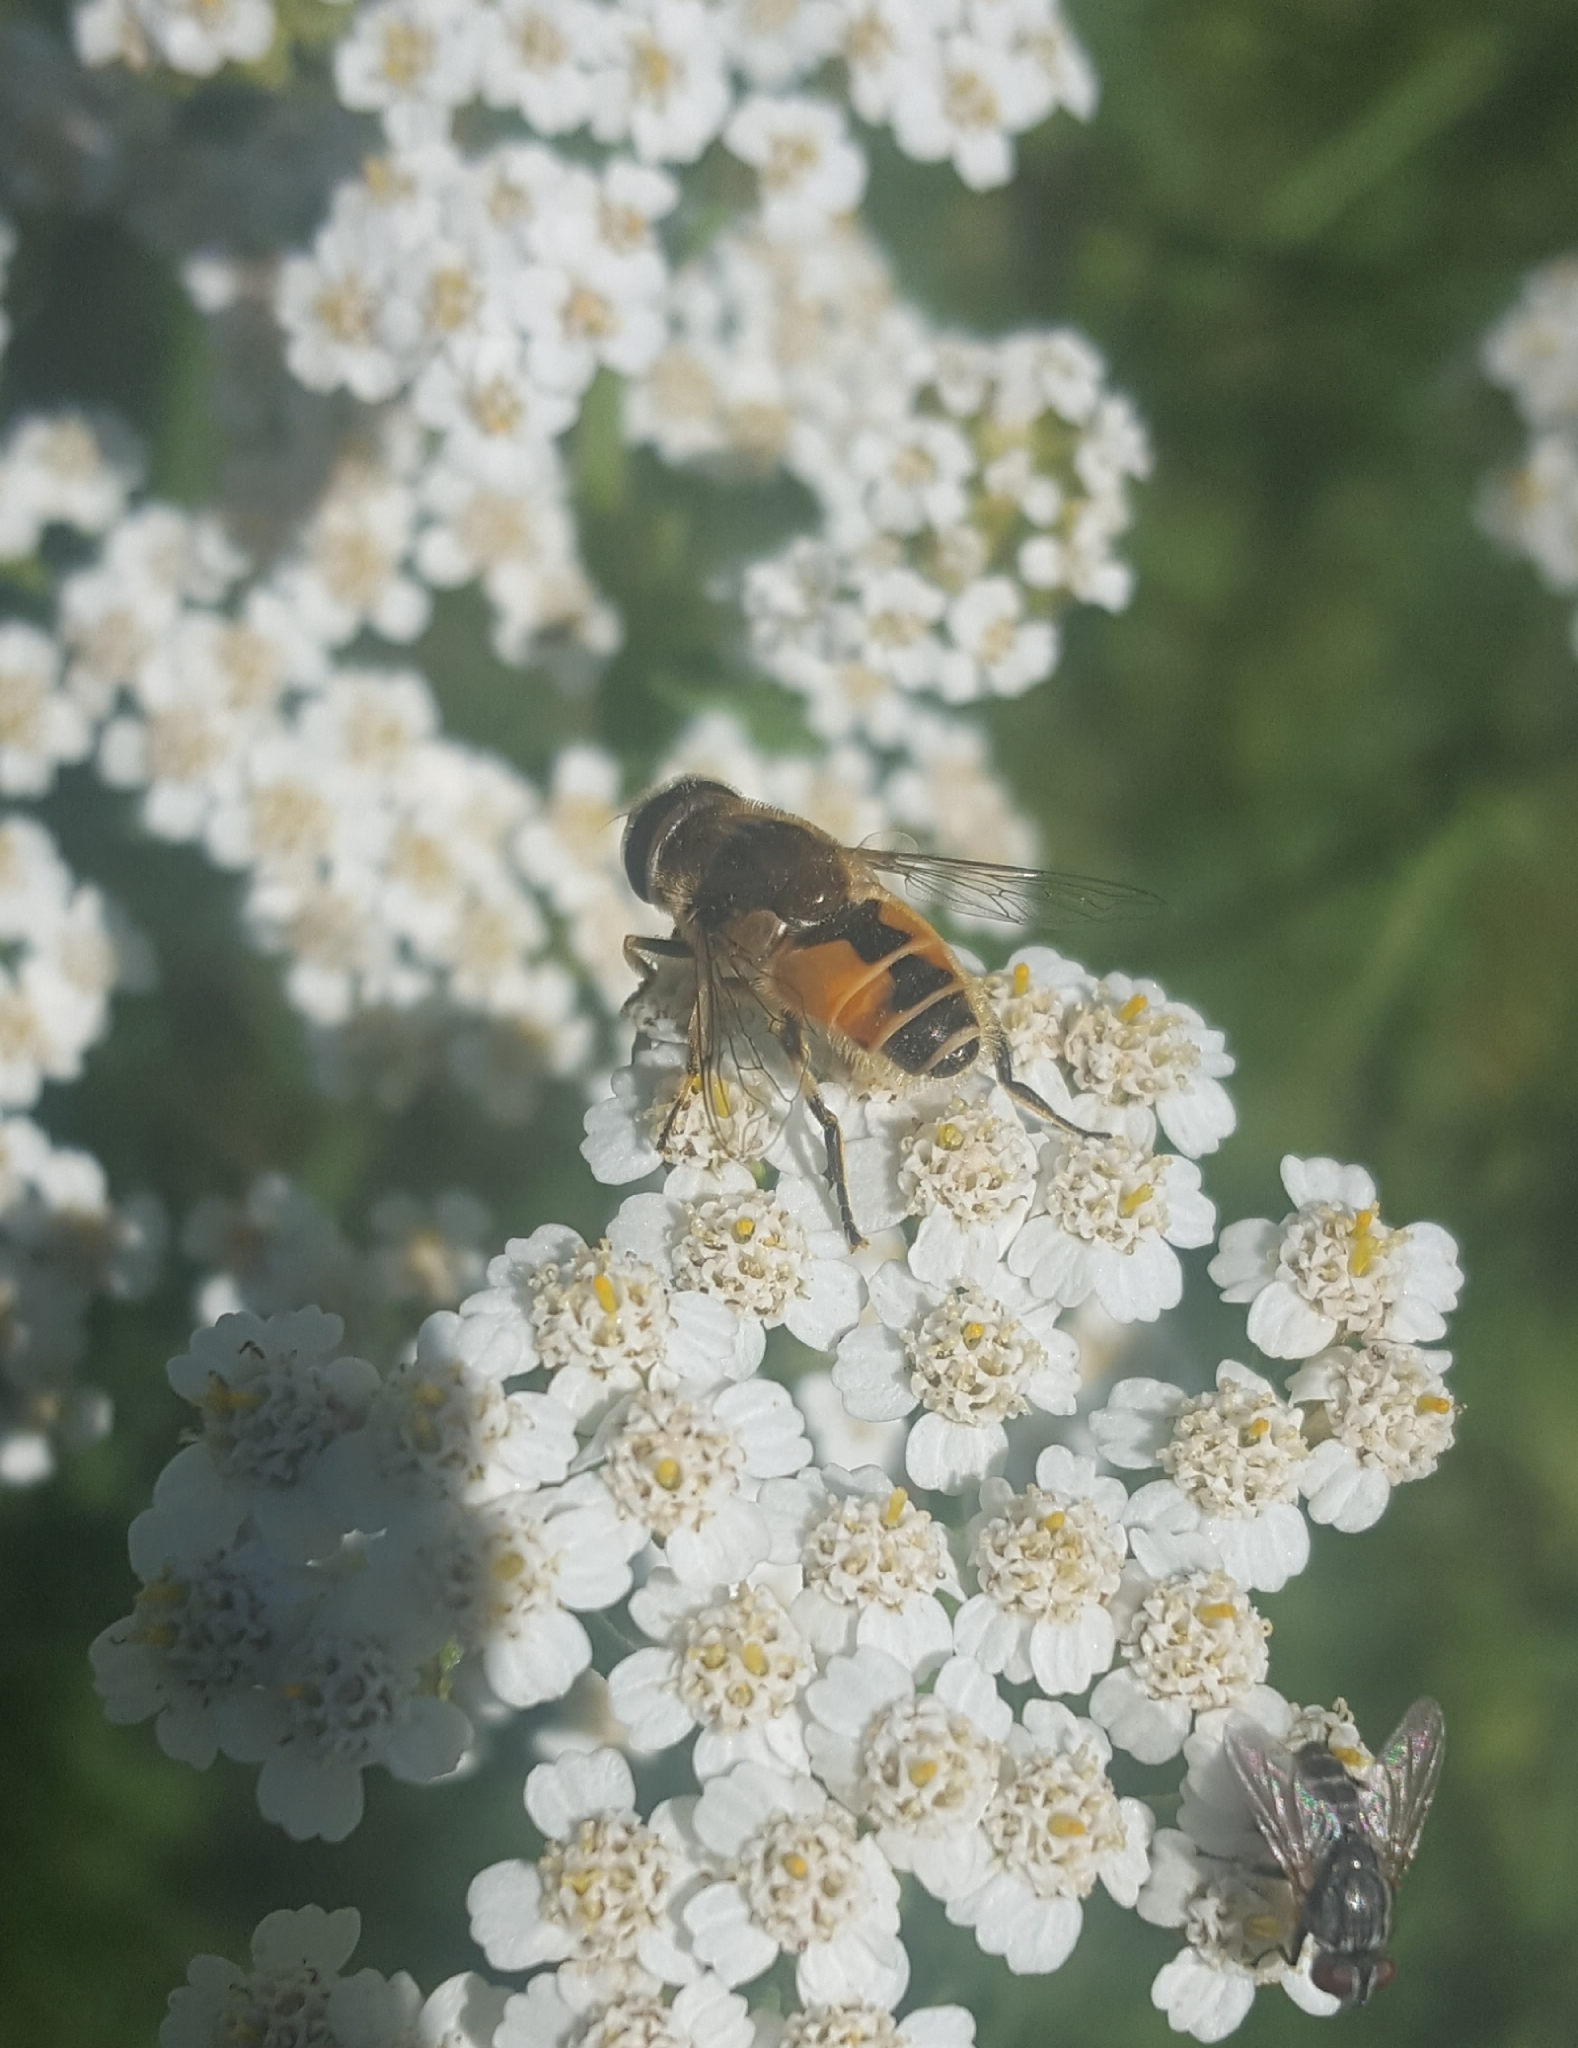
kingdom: Animalia
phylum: Arthropoda
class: Insecta
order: Diptera
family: Syrphidae
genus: Eristalis
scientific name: Eristalis arbustorum
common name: Hover fly
